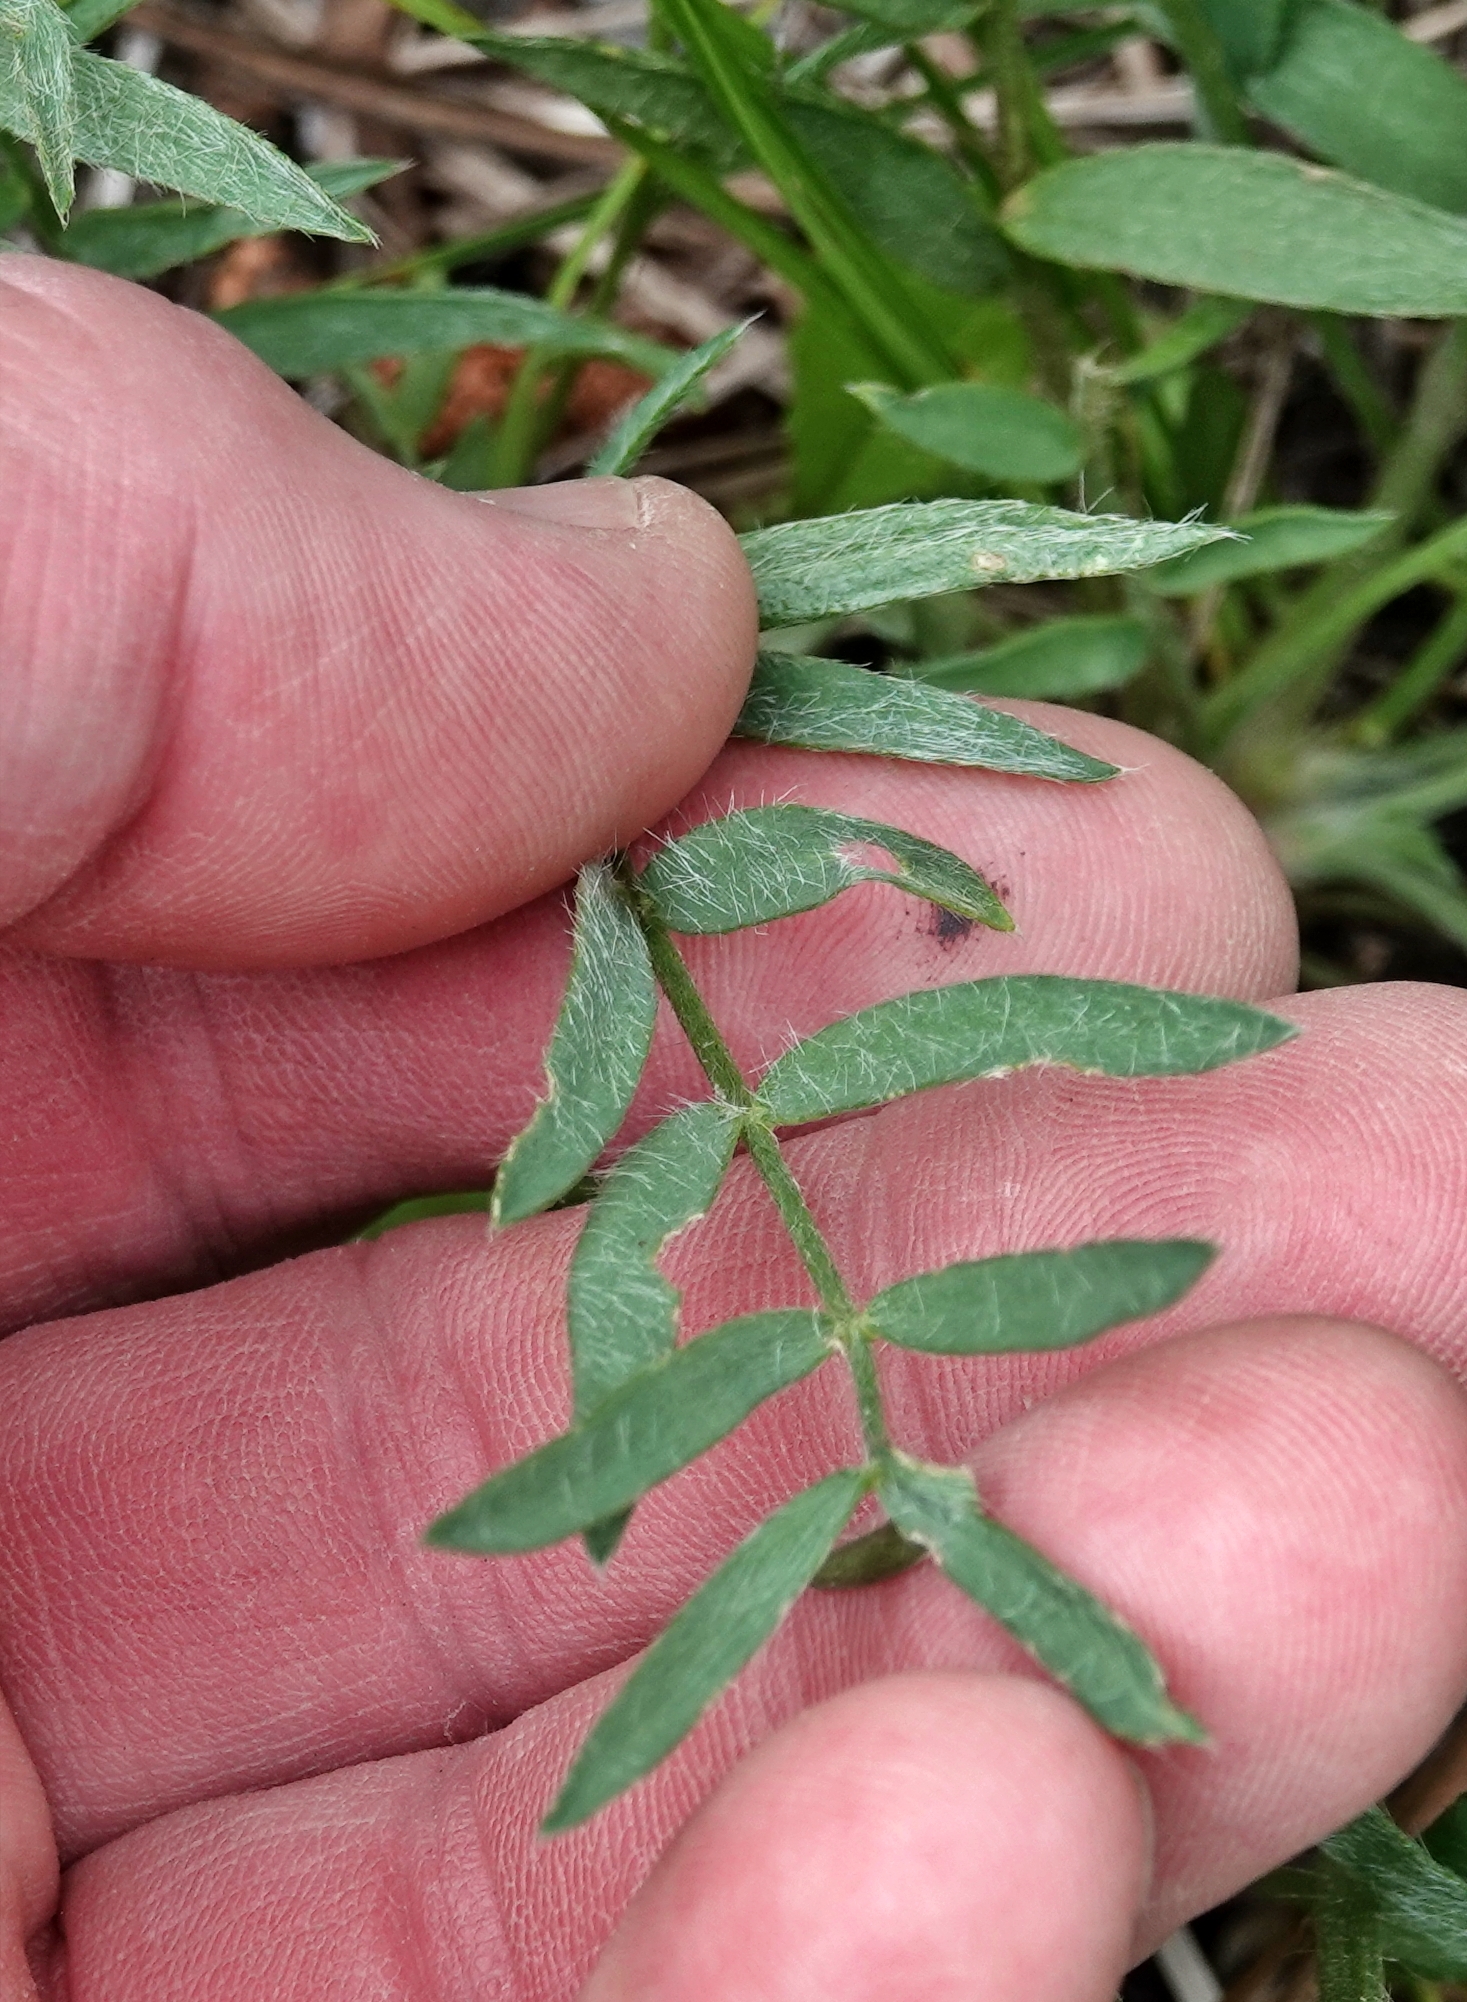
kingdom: Plantae
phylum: Tracheophyta
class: Magnoliopsida
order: Fabales
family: Fabaceae
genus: Oxytropis
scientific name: Oxytropis lambertii
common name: Purple locoweed
